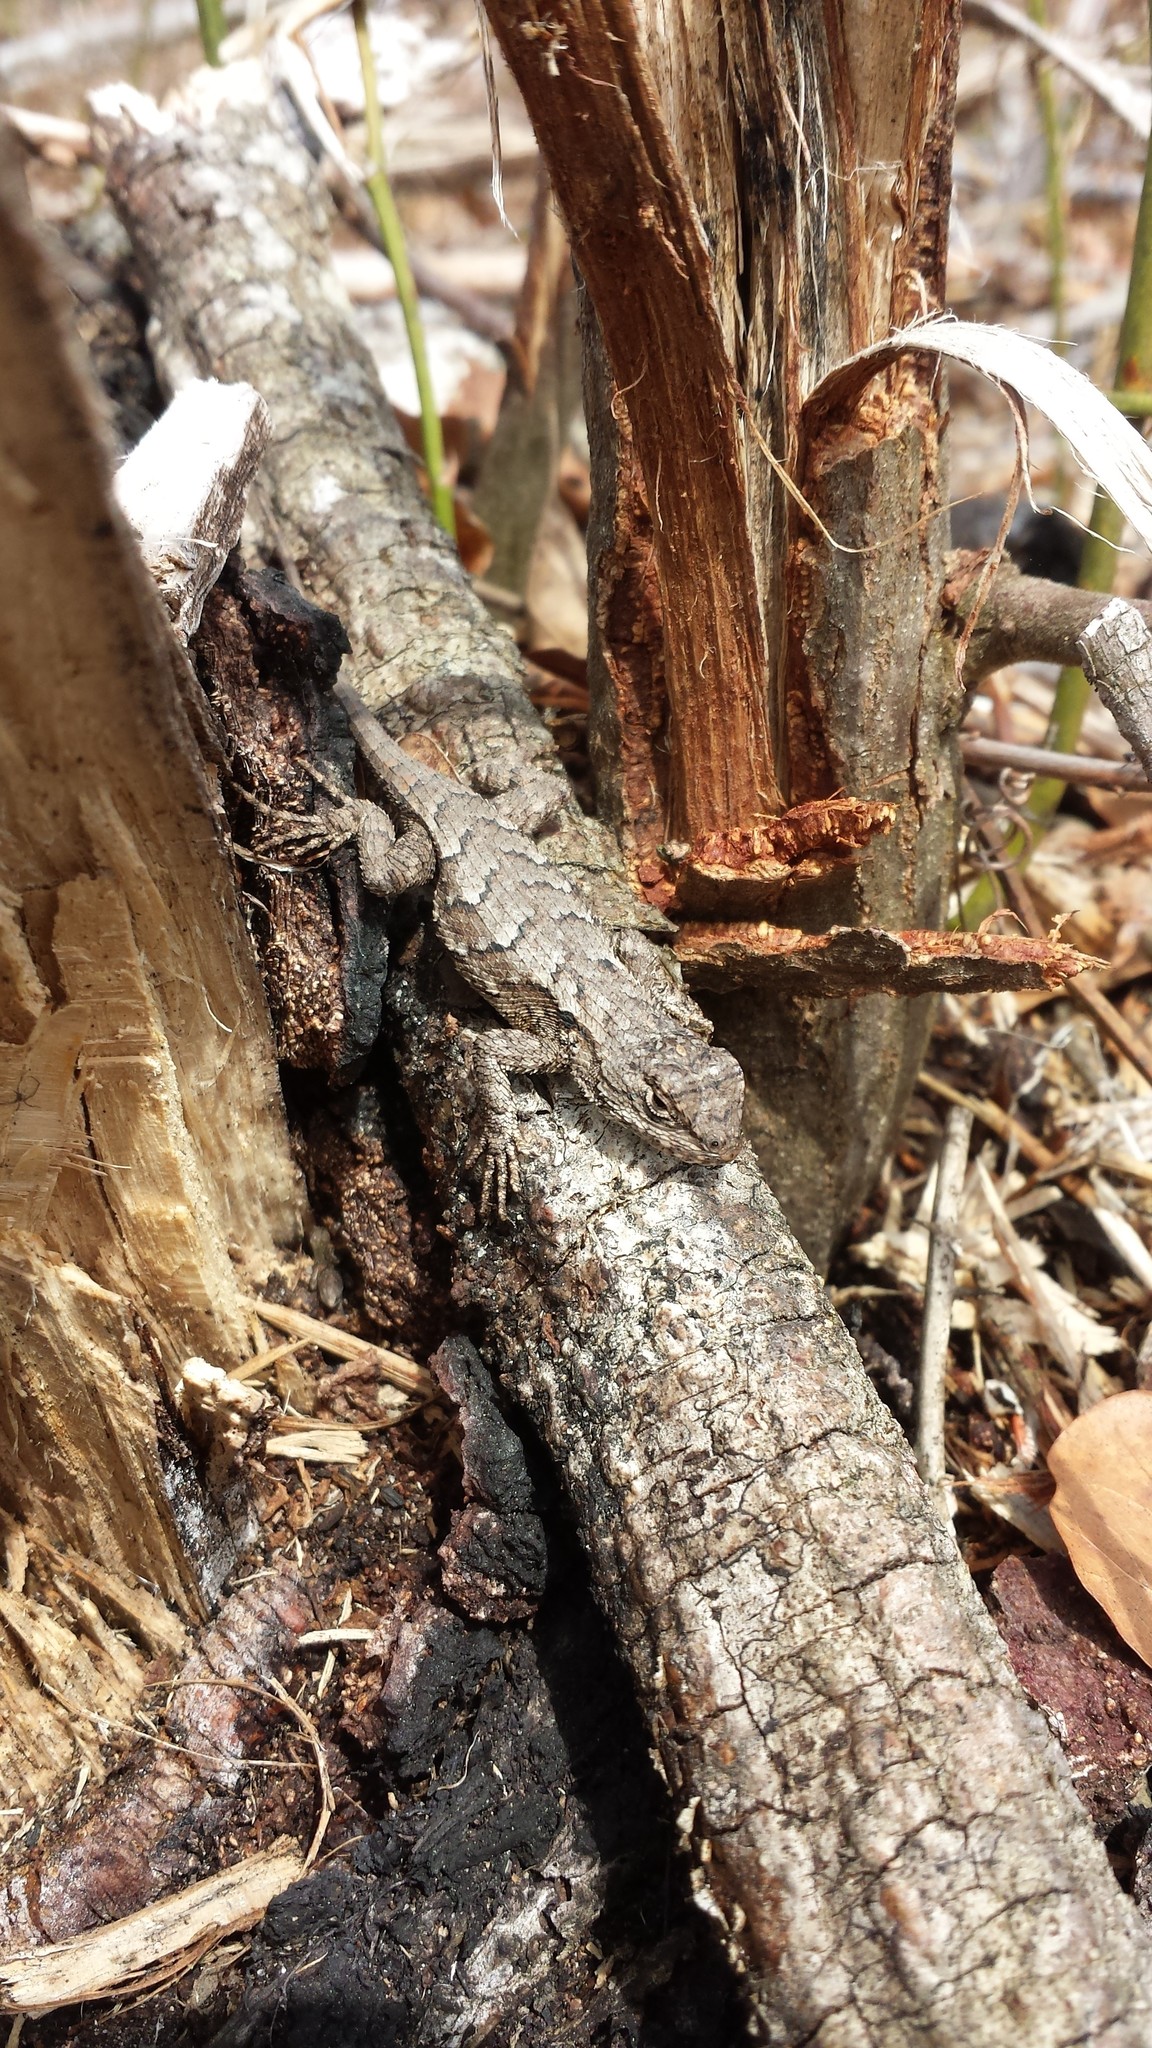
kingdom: Animalia
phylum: Chordata
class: Squamata
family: Phrynosomatidae
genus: Sceloporus
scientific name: Sceloporus undulatus
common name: Eastern fence lizard
